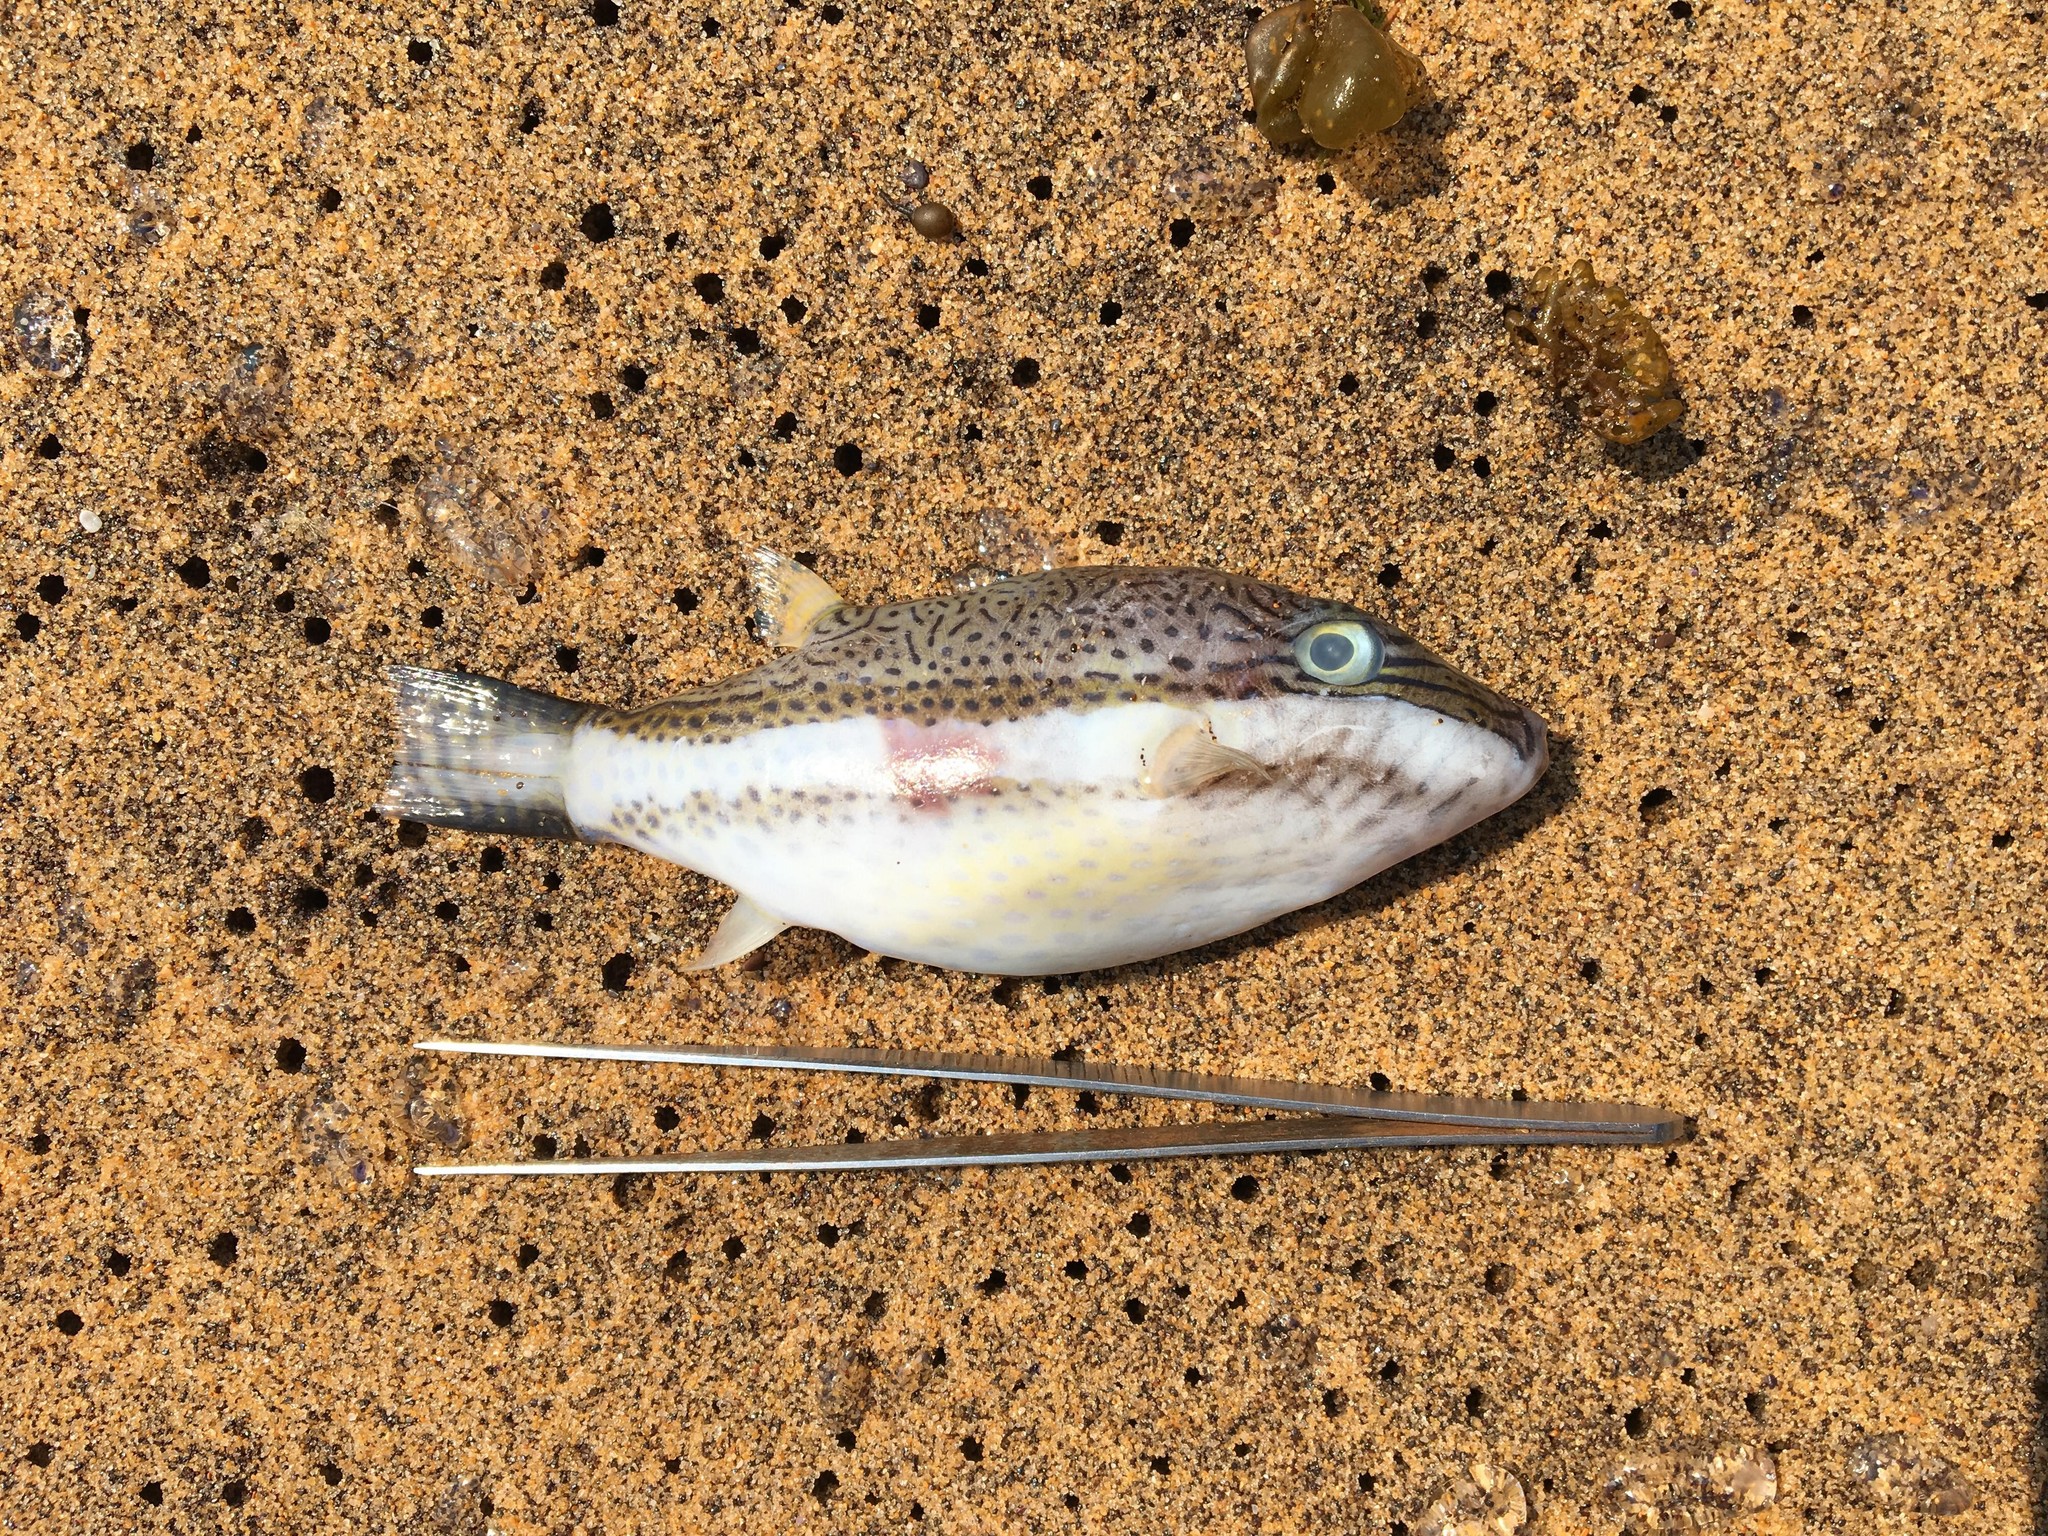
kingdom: Animalia
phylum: Chordata
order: Tetraodontiformes
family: Tetraodontidae
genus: Canthigaster
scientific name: Canthigaster callisterna
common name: Clown toado
